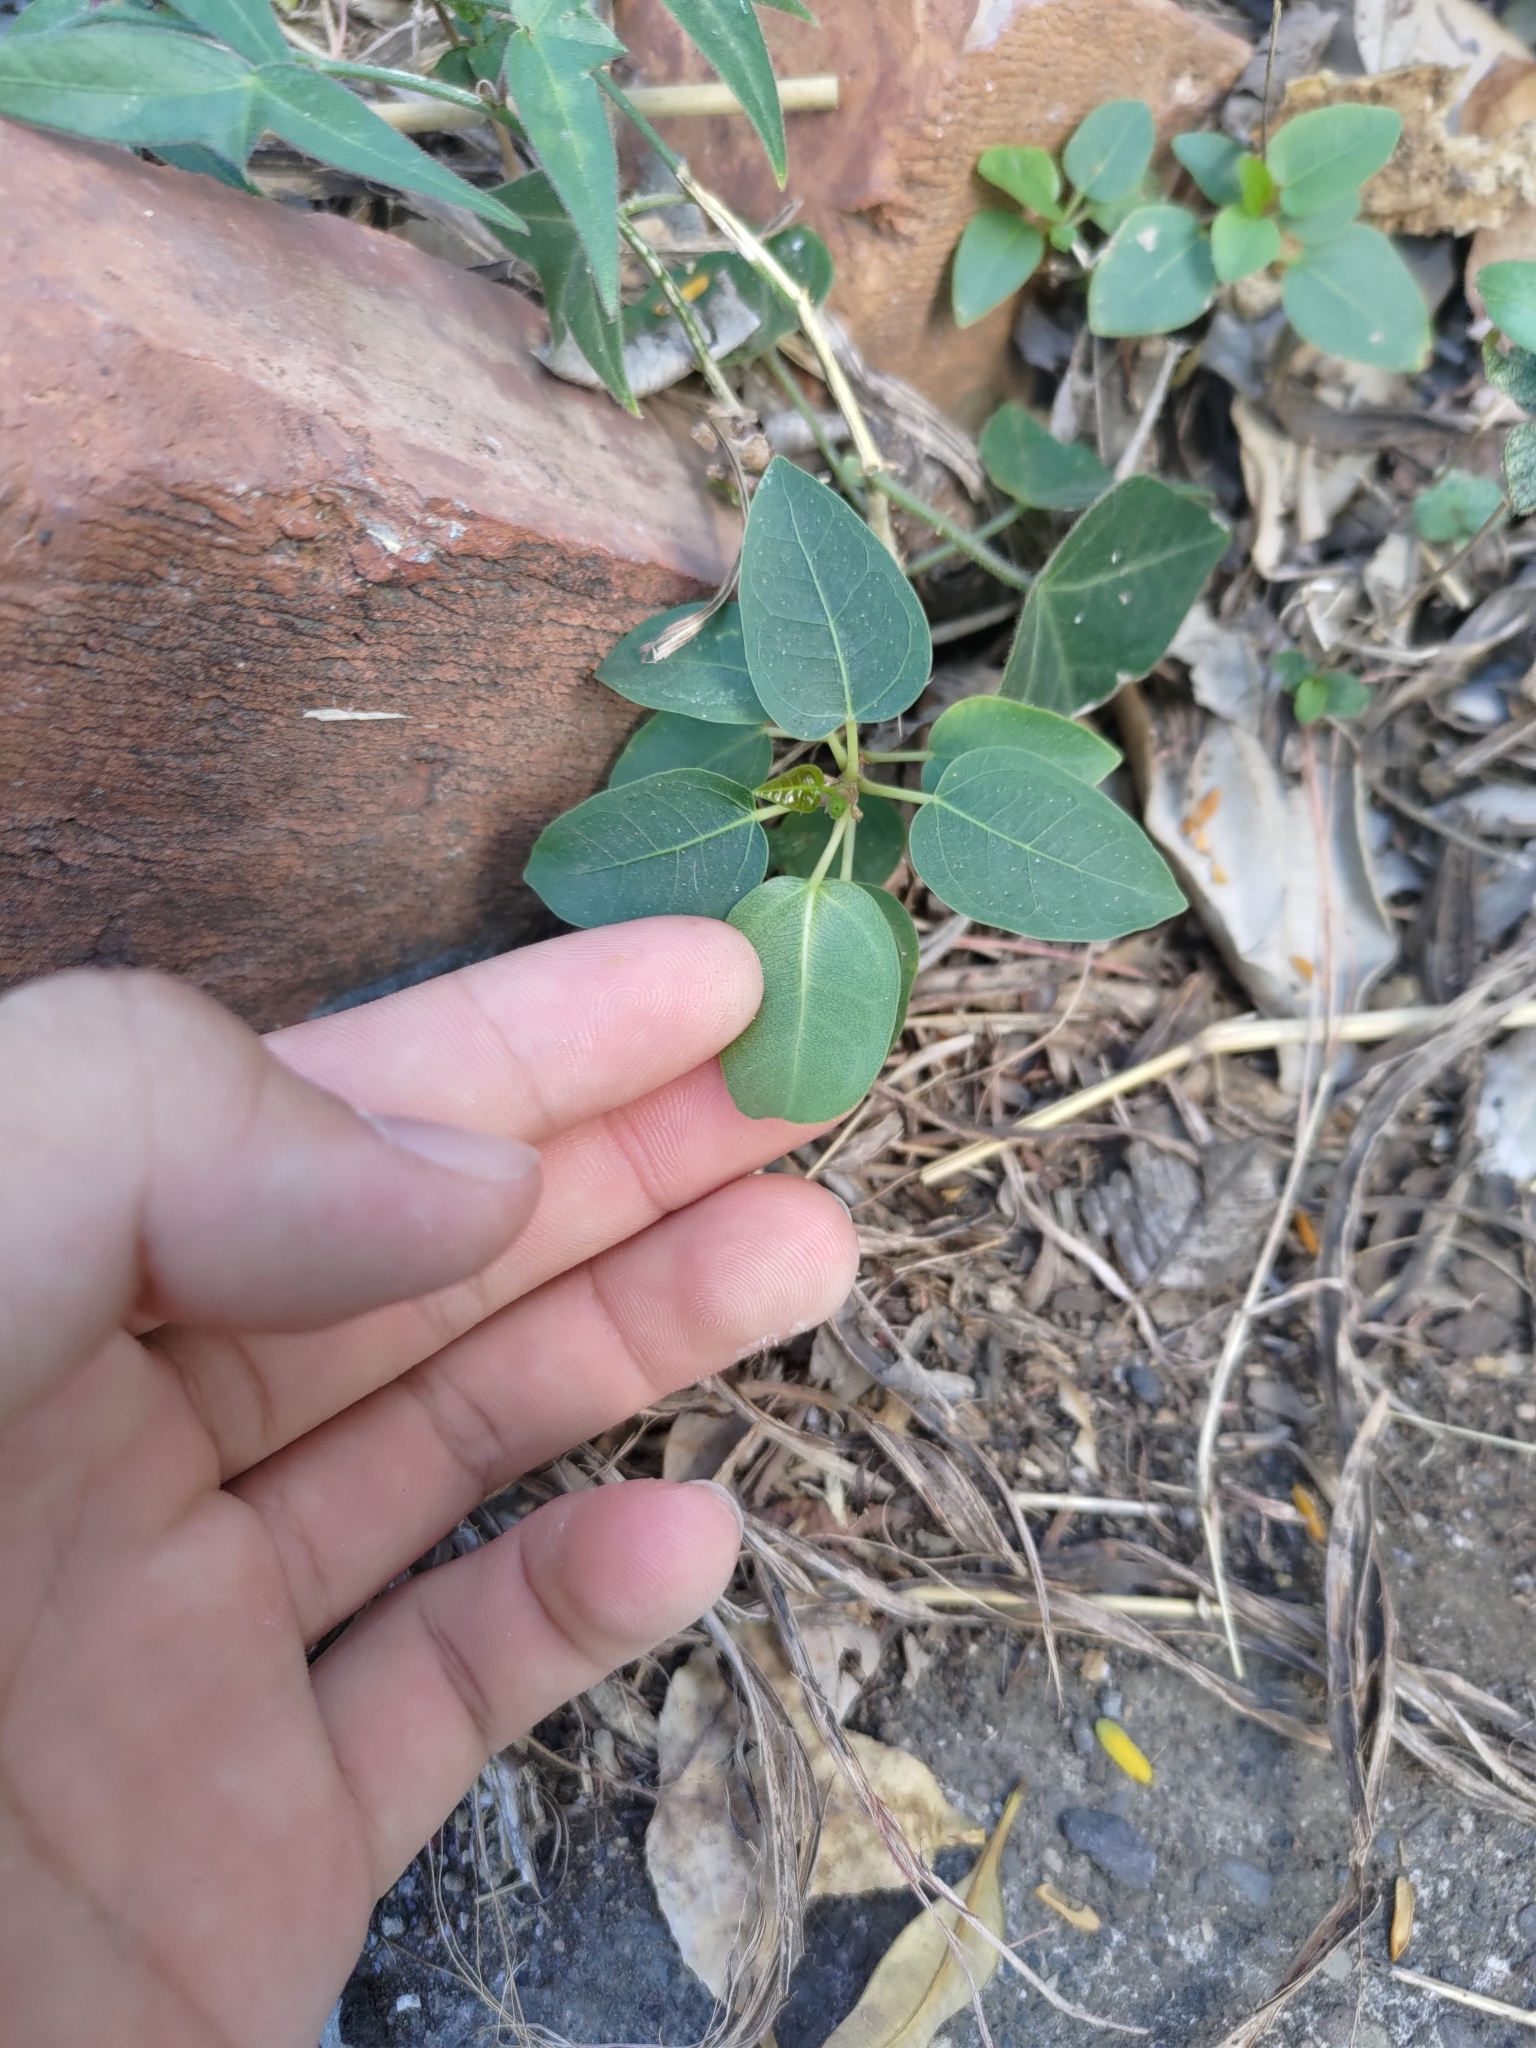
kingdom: Plantae
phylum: Tracheophyta
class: Magnoliopsida
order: Rosales
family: Moraceae
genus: Ficus
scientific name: Ficus subpisocarpa
